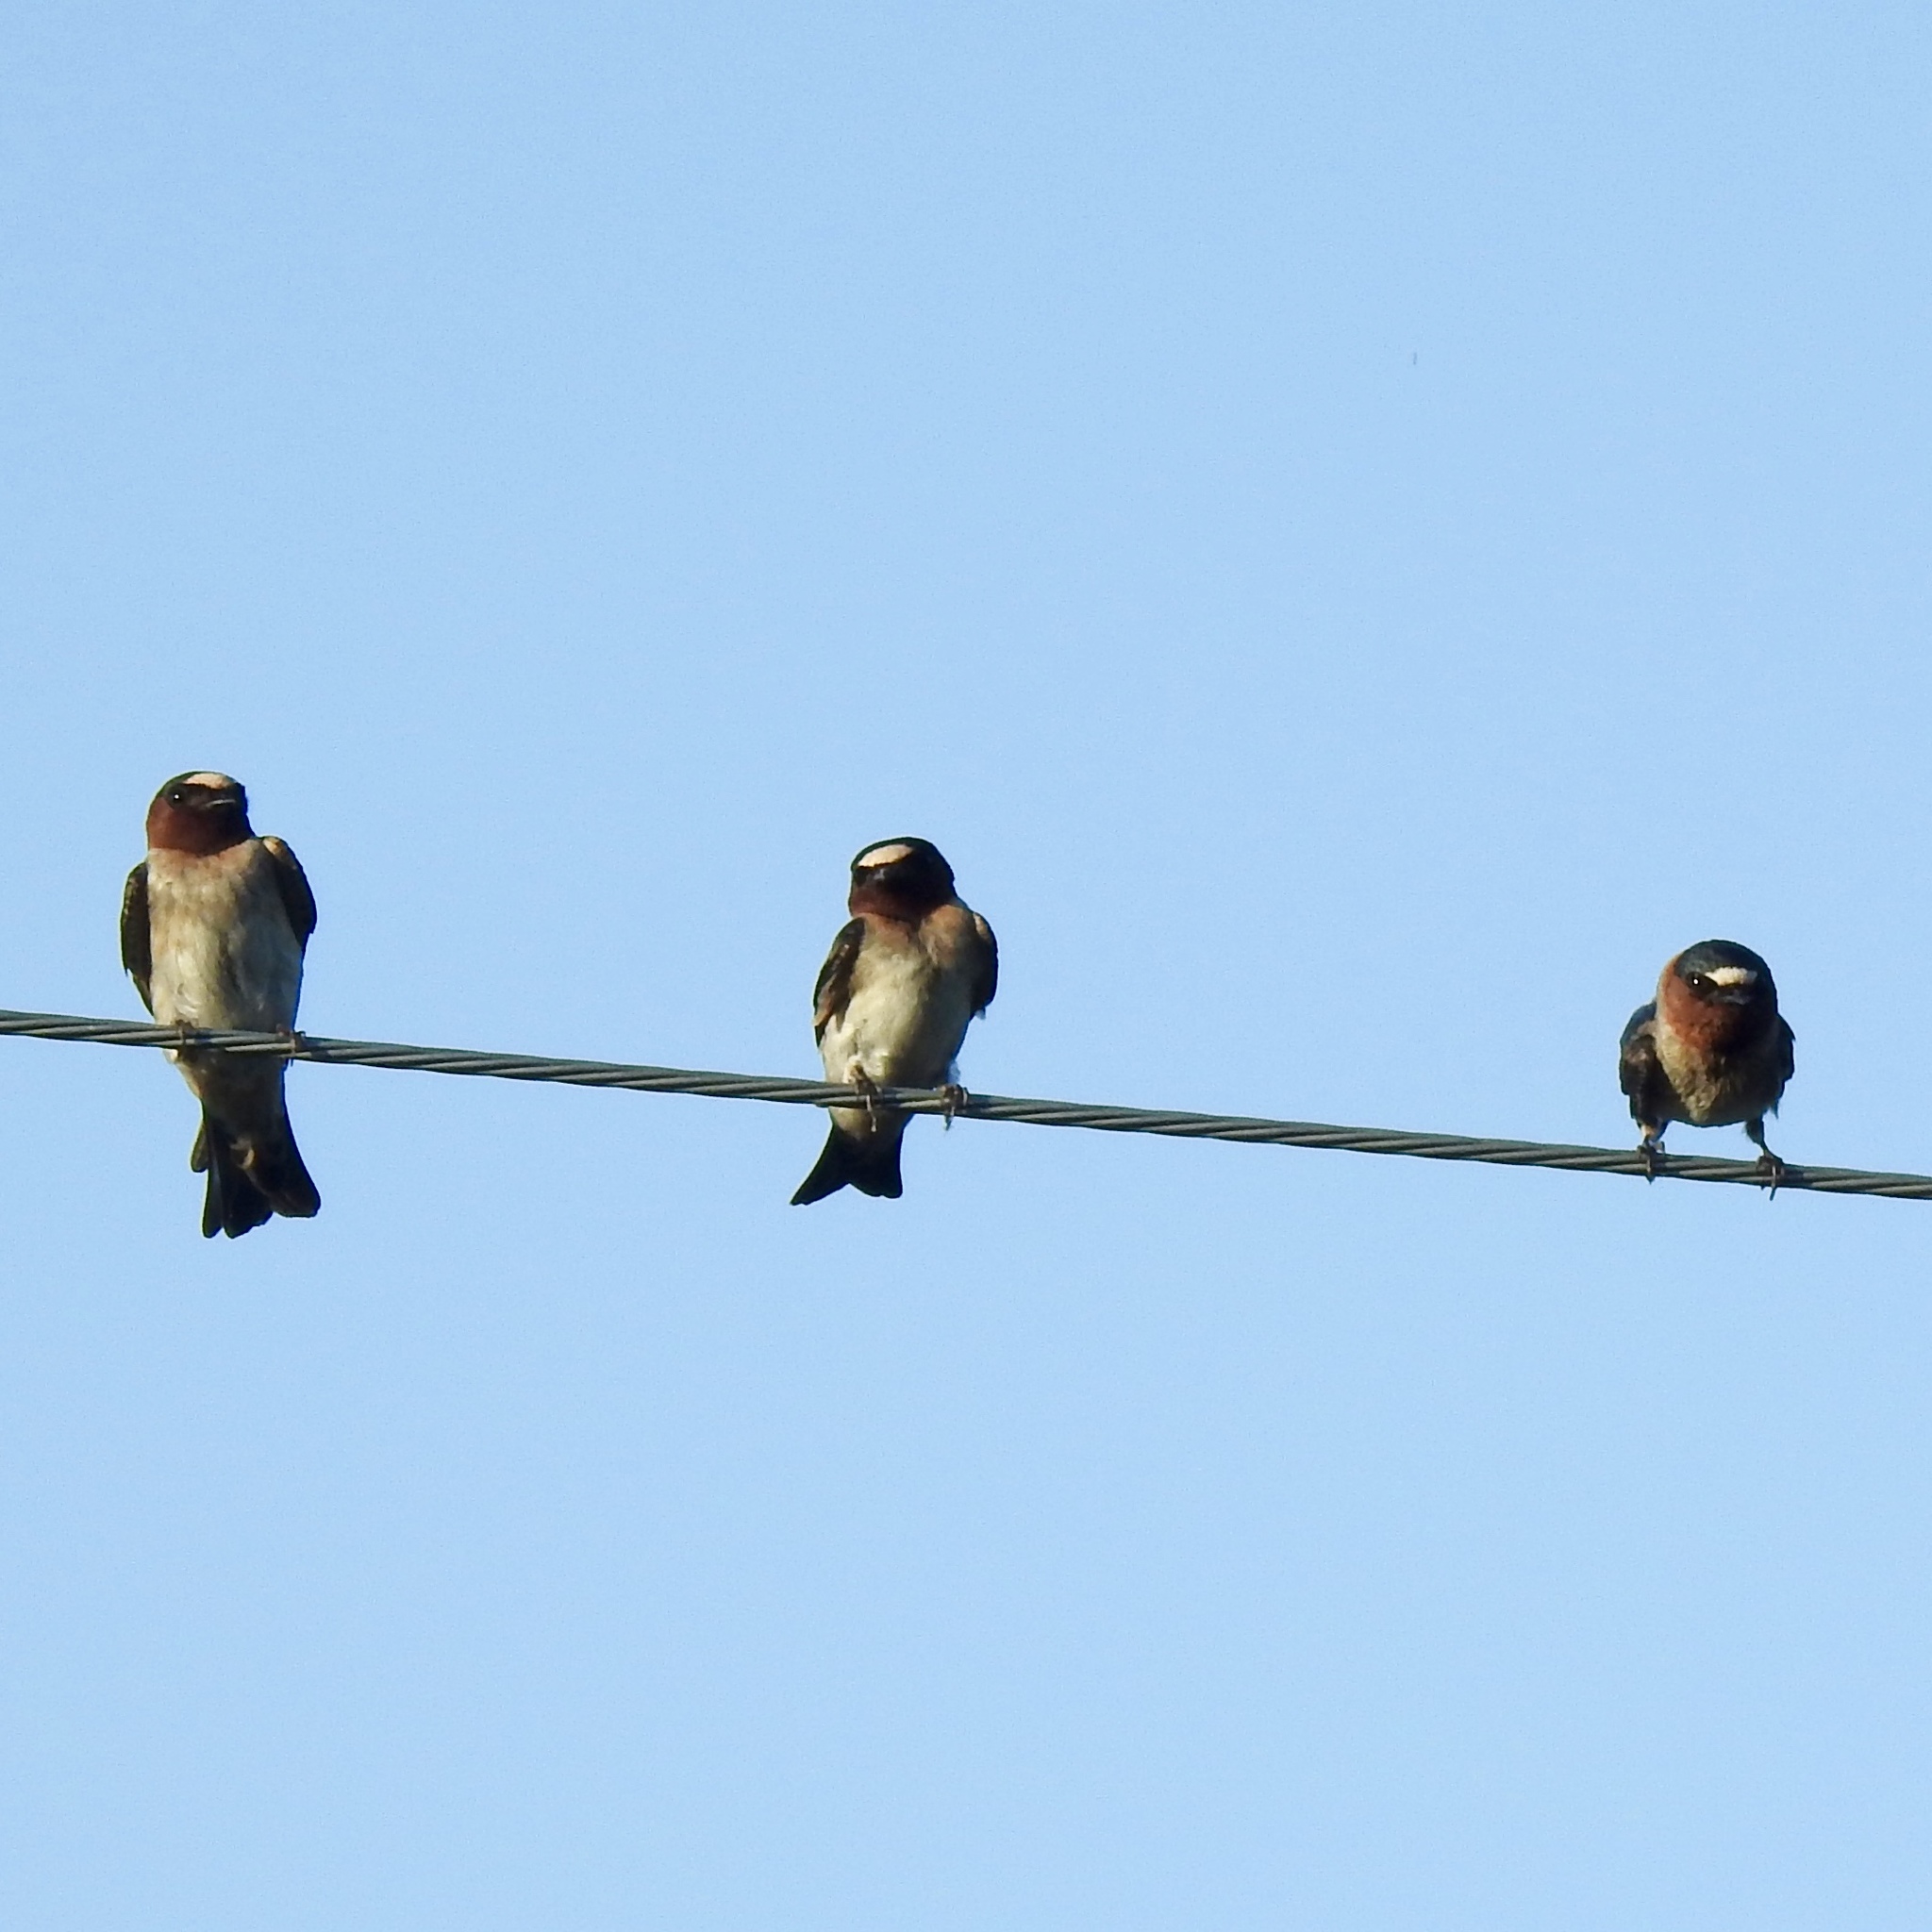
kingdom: Animalia
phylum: Chordata
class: Aves
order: Passeriformes
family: Hirundinidae
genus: Petrochelidon
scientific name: Petrochelidon pyrrhonota
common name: American cliff swallow
